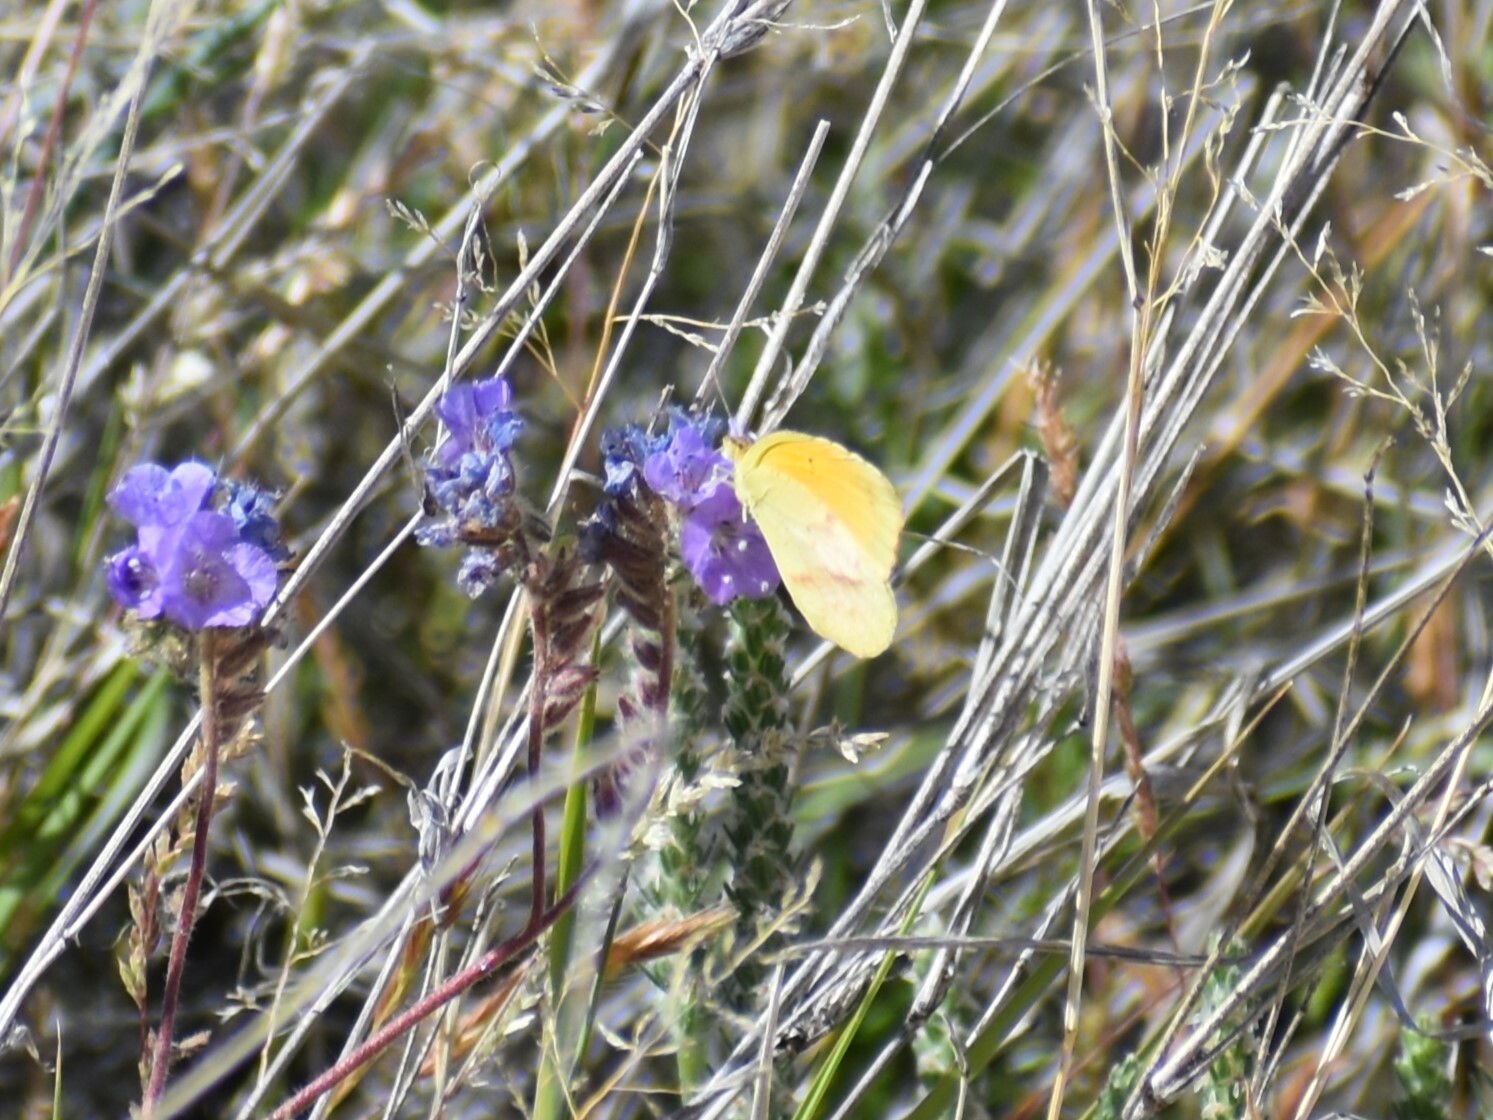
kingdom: Animalia
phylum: Arthropoda
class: Insecta
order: Lepidoptera
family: Pieridae
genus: Abaeis
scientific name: Abaeis nicippe
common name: Sleepy orange
